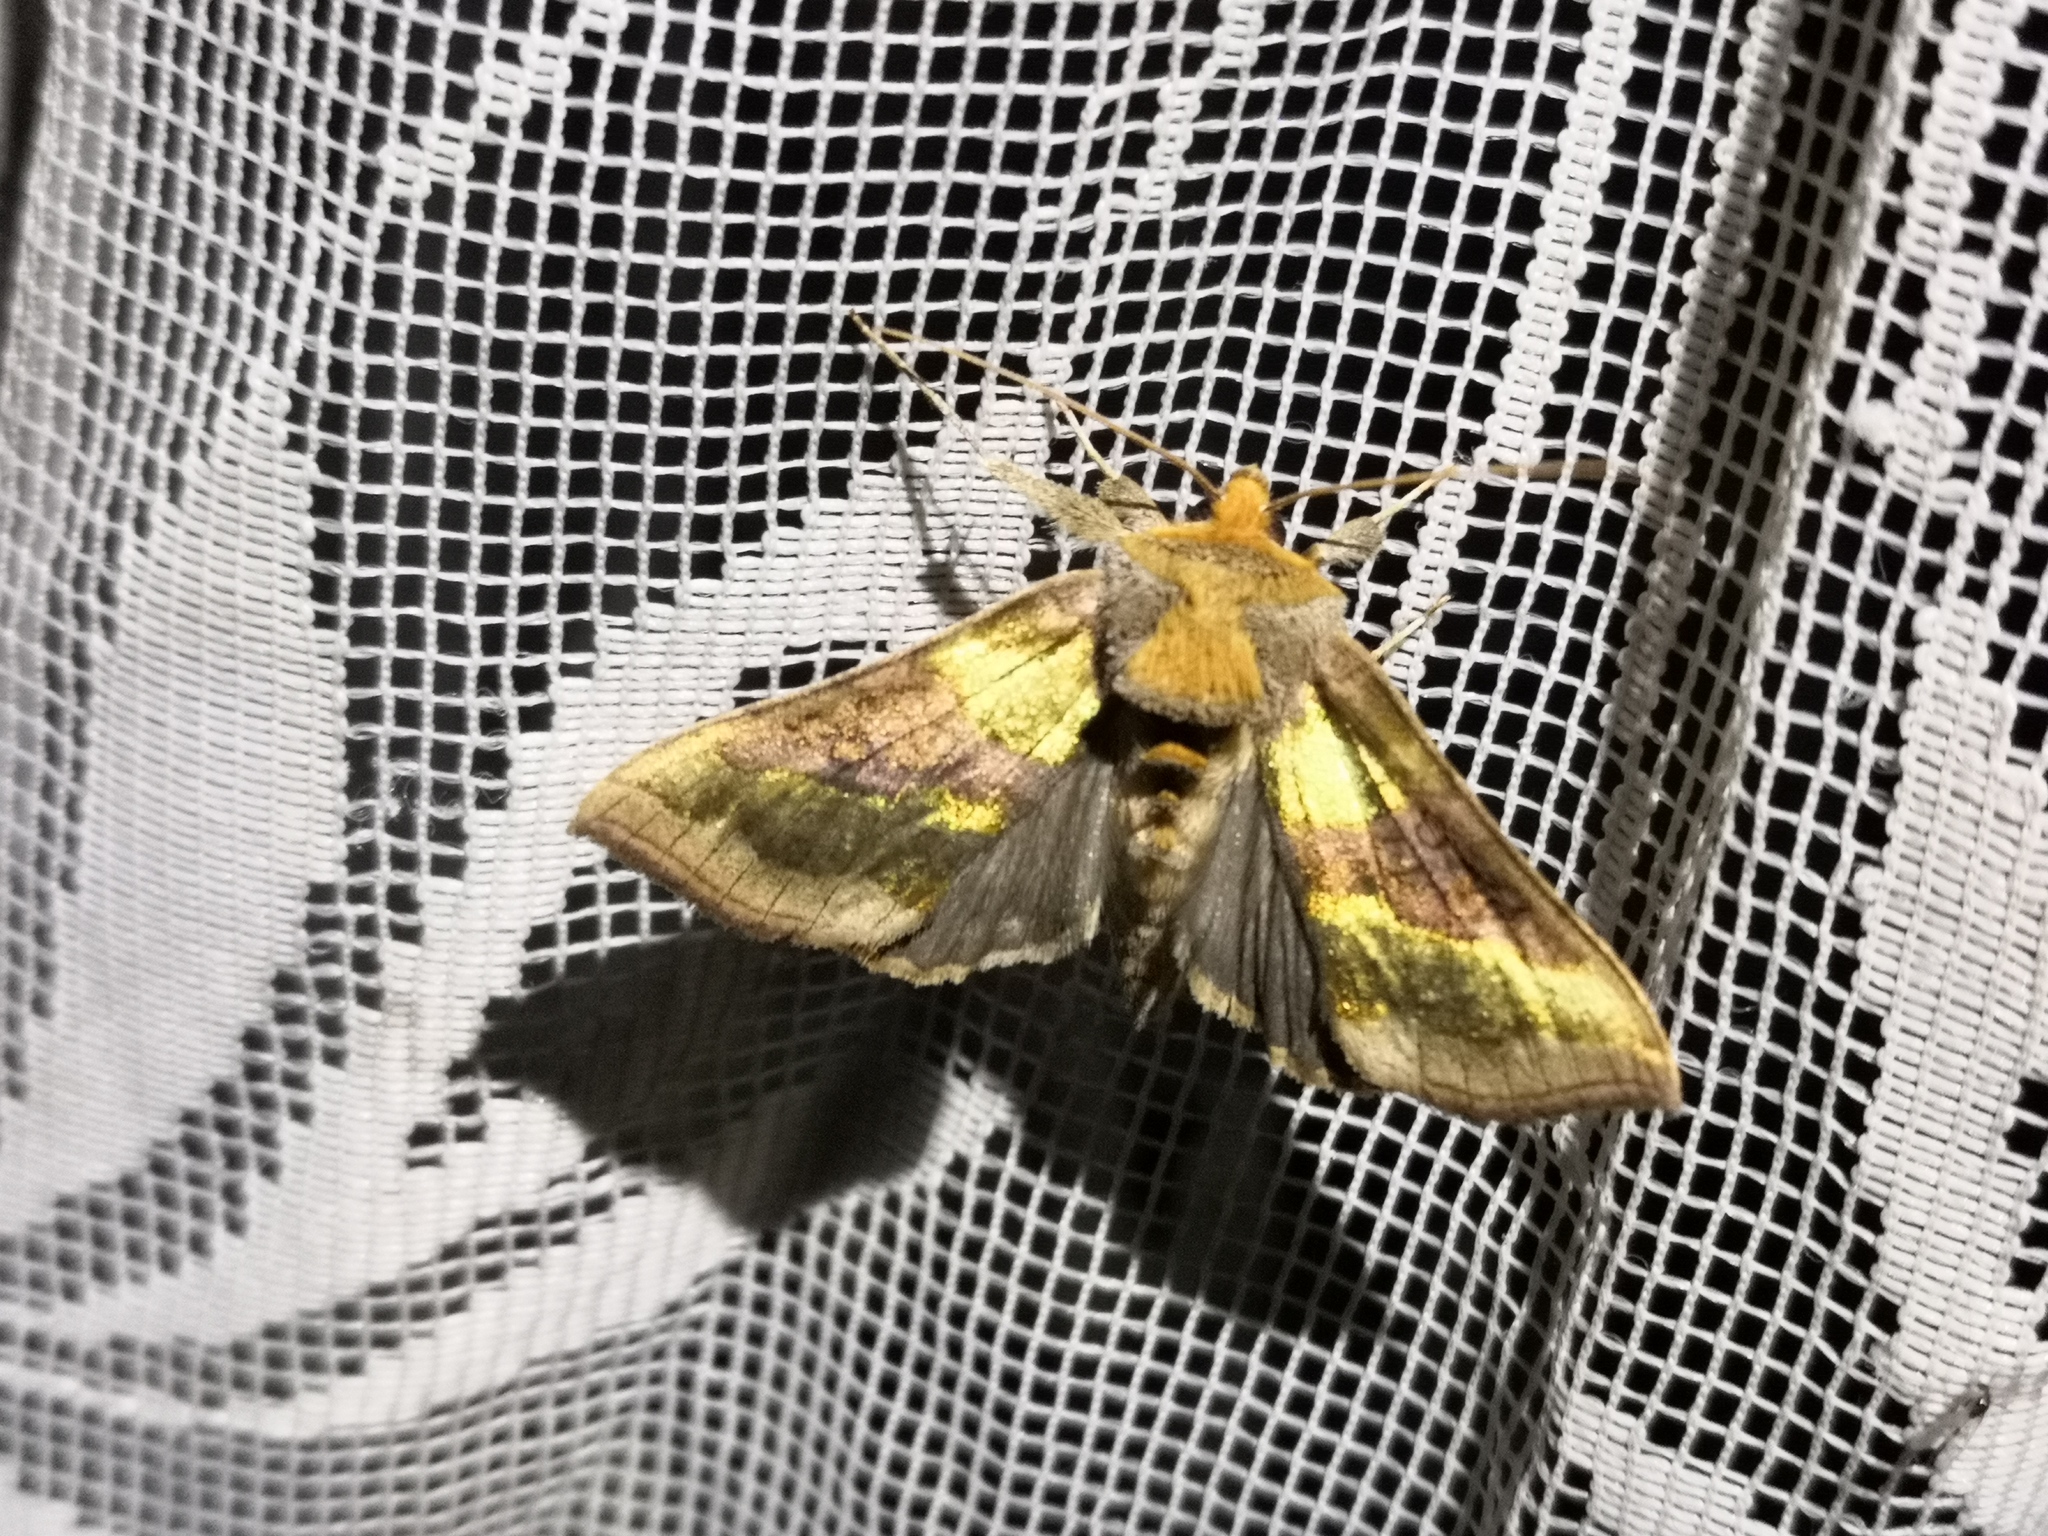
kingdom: Animalia
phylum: Arthropoda
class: Insecta
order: Lepidoptera
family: Noctuidae
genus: Diachrysia
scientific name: Diachrysia chrysitis
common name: Burnished brass
